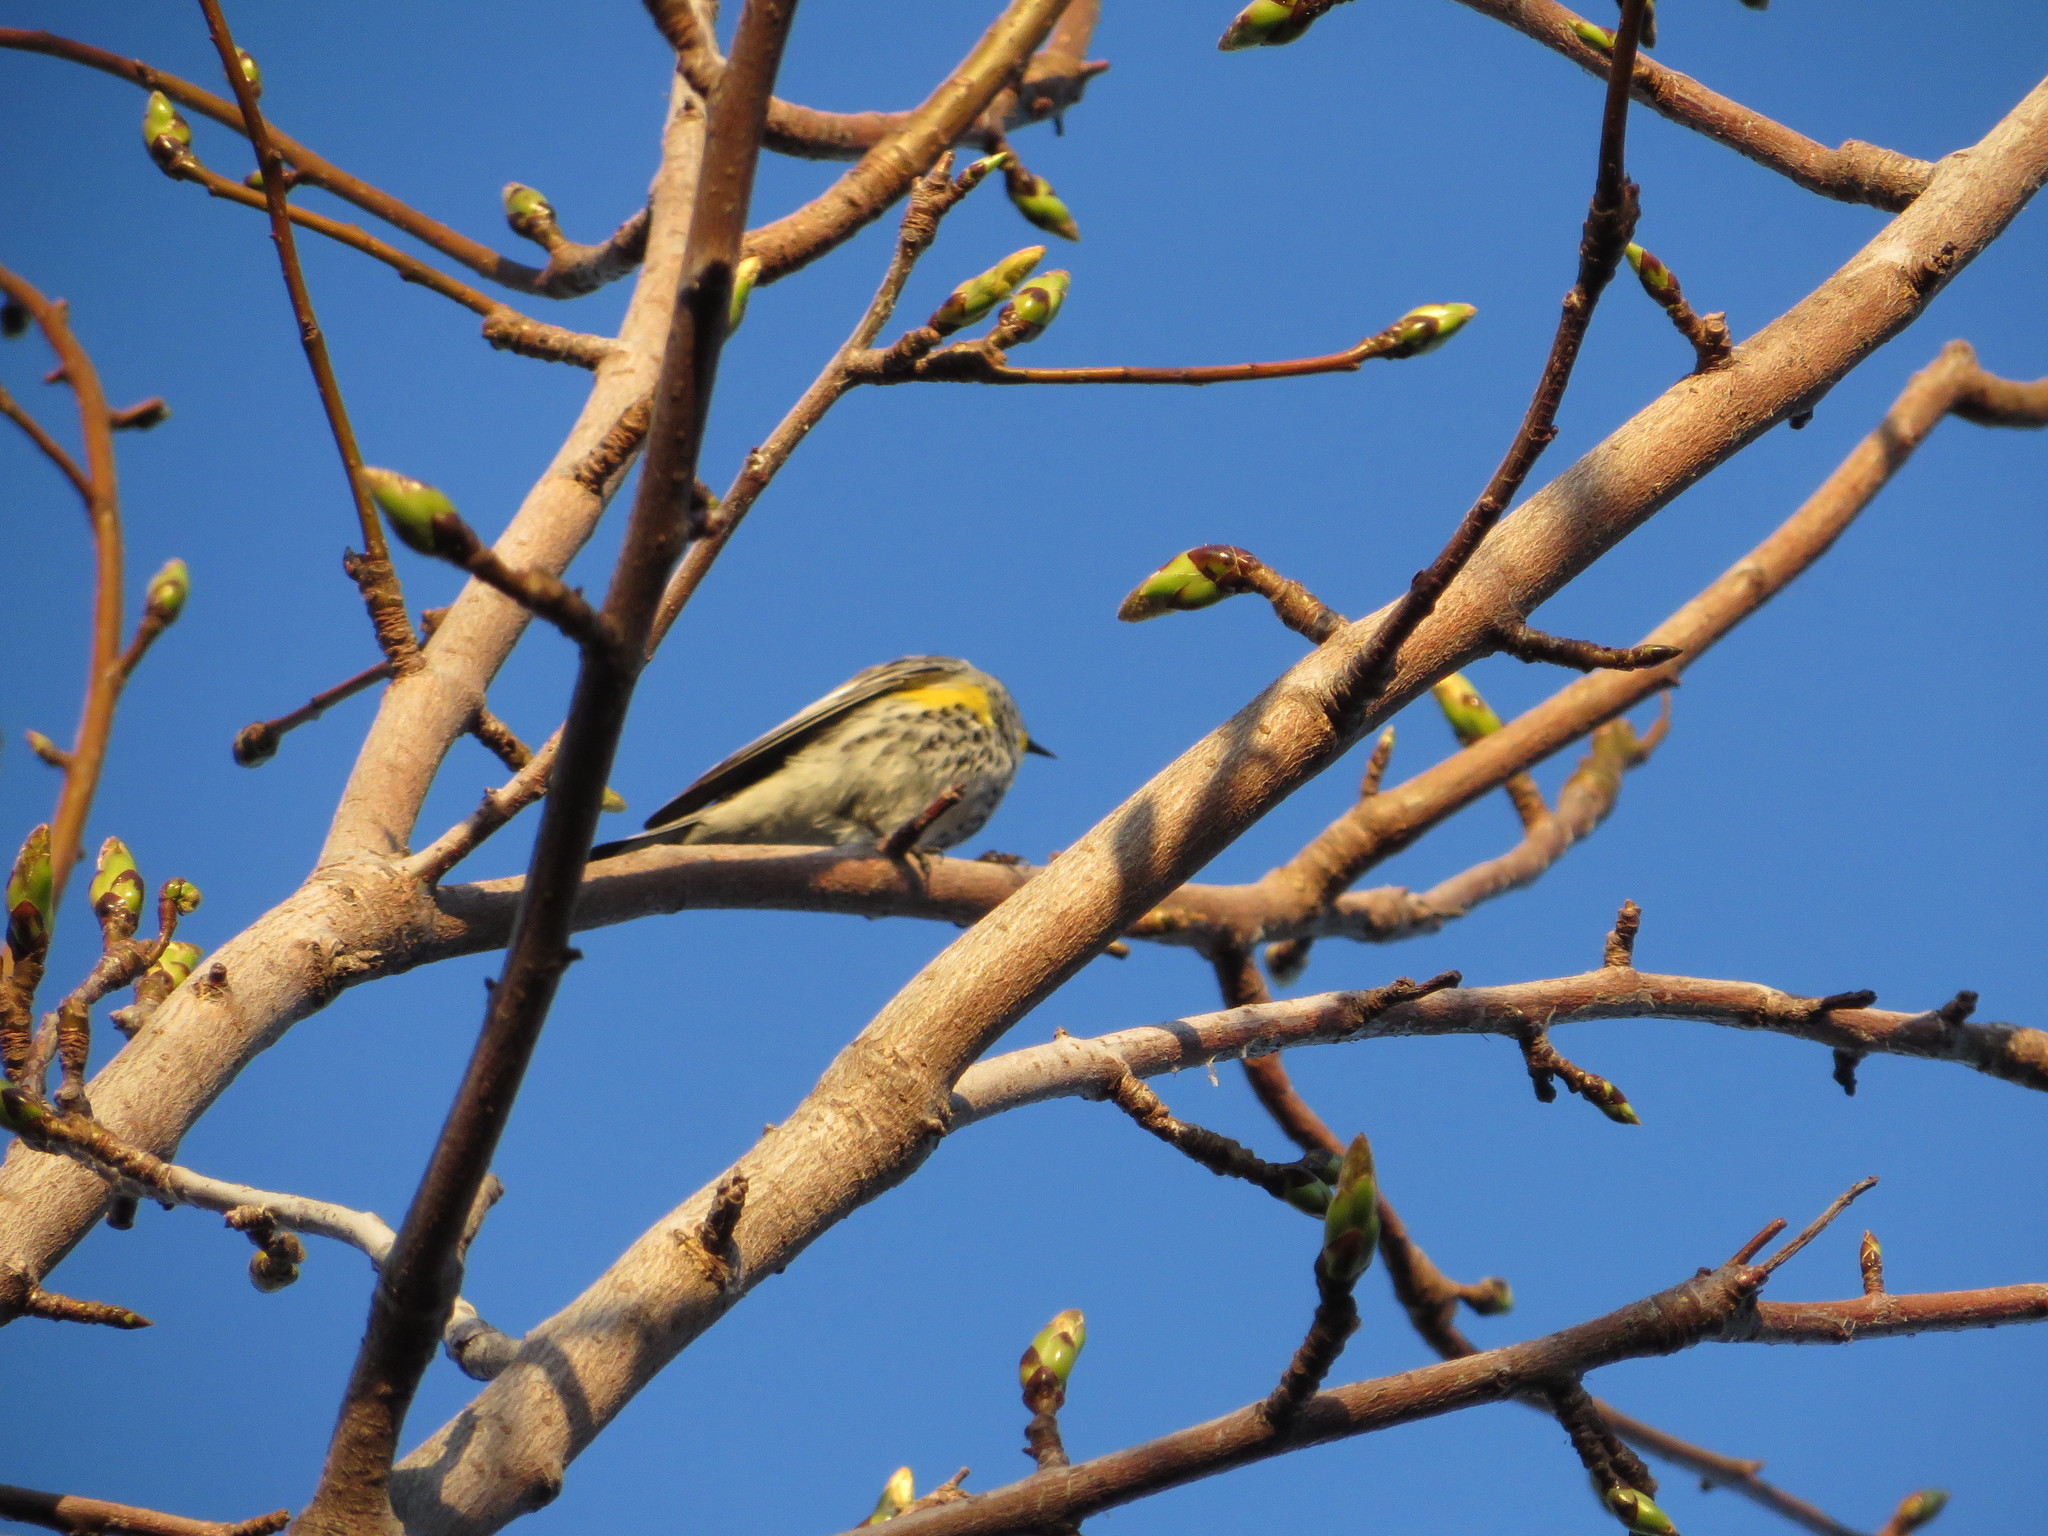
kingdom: Animalia
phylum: Chordata
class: Aves
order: Passeriformes
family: Parulidae
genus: Setophaga
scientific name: Setophaga auduboni
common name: Audubon's warbler
